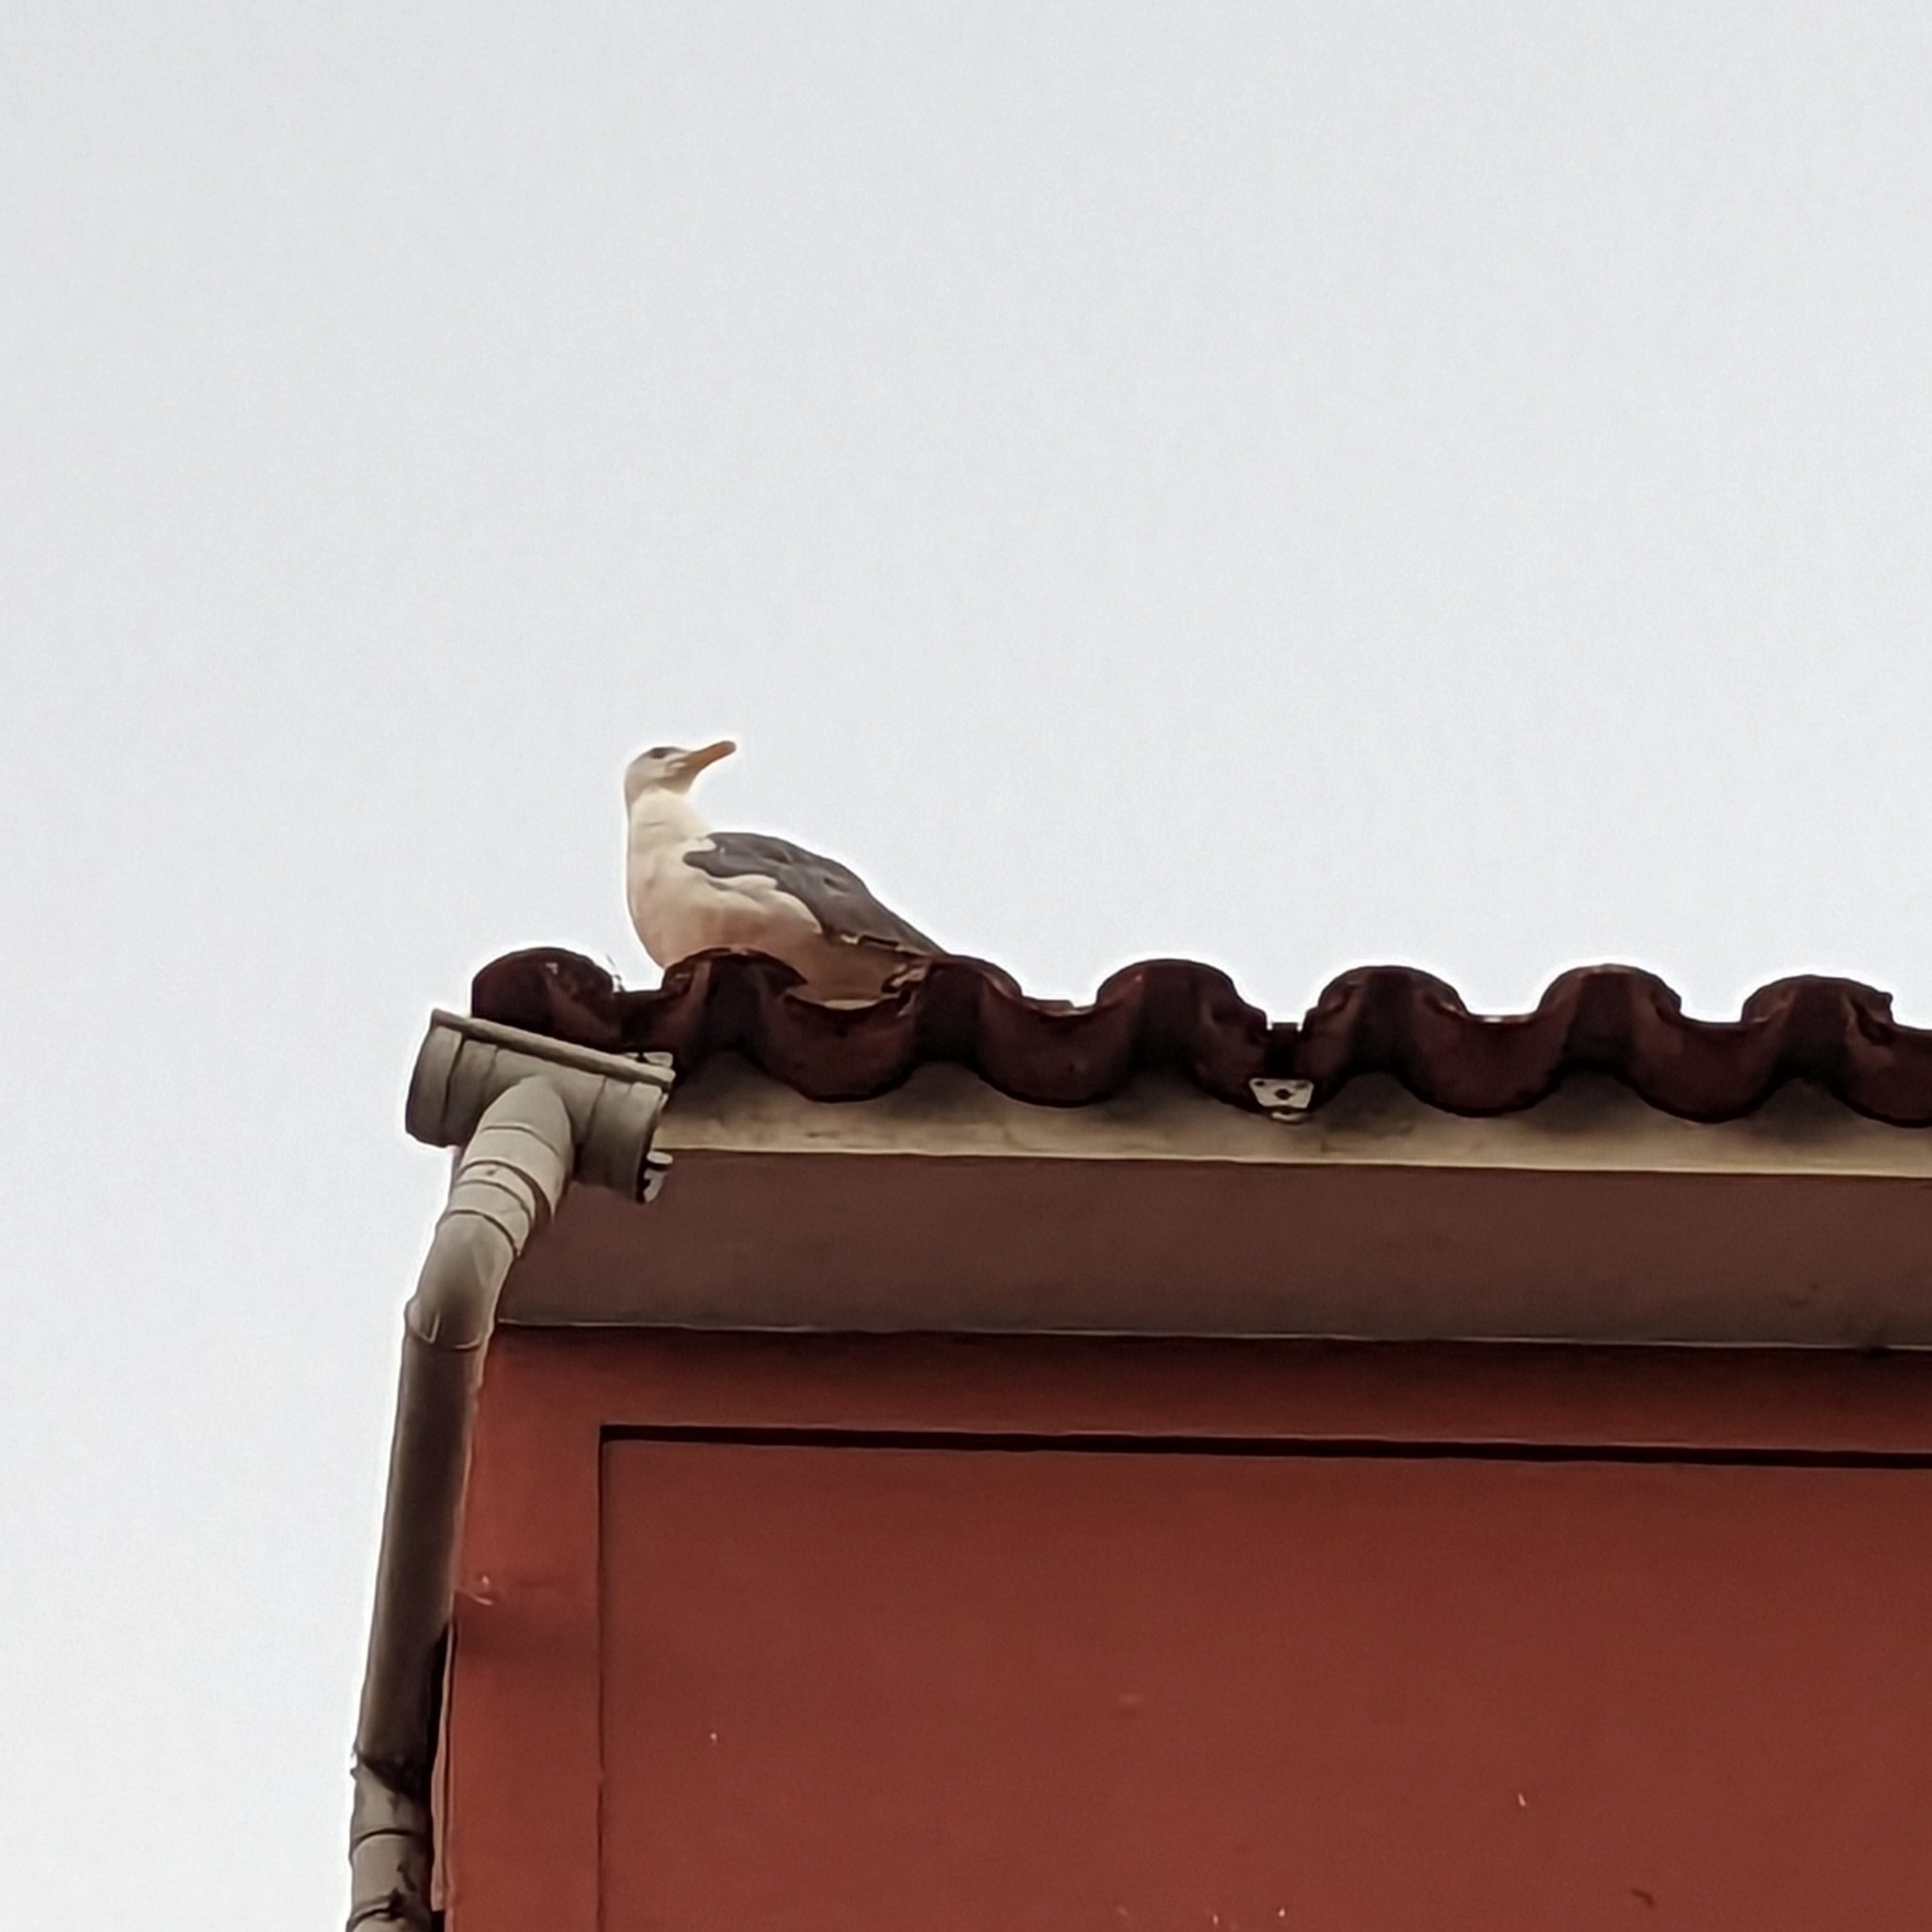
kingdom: Animalia
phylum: Chordata
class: Aves
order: Charadriiformes
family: Laridae
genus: Larus
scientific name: Larus michahellis
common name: Yellow-legged gull
